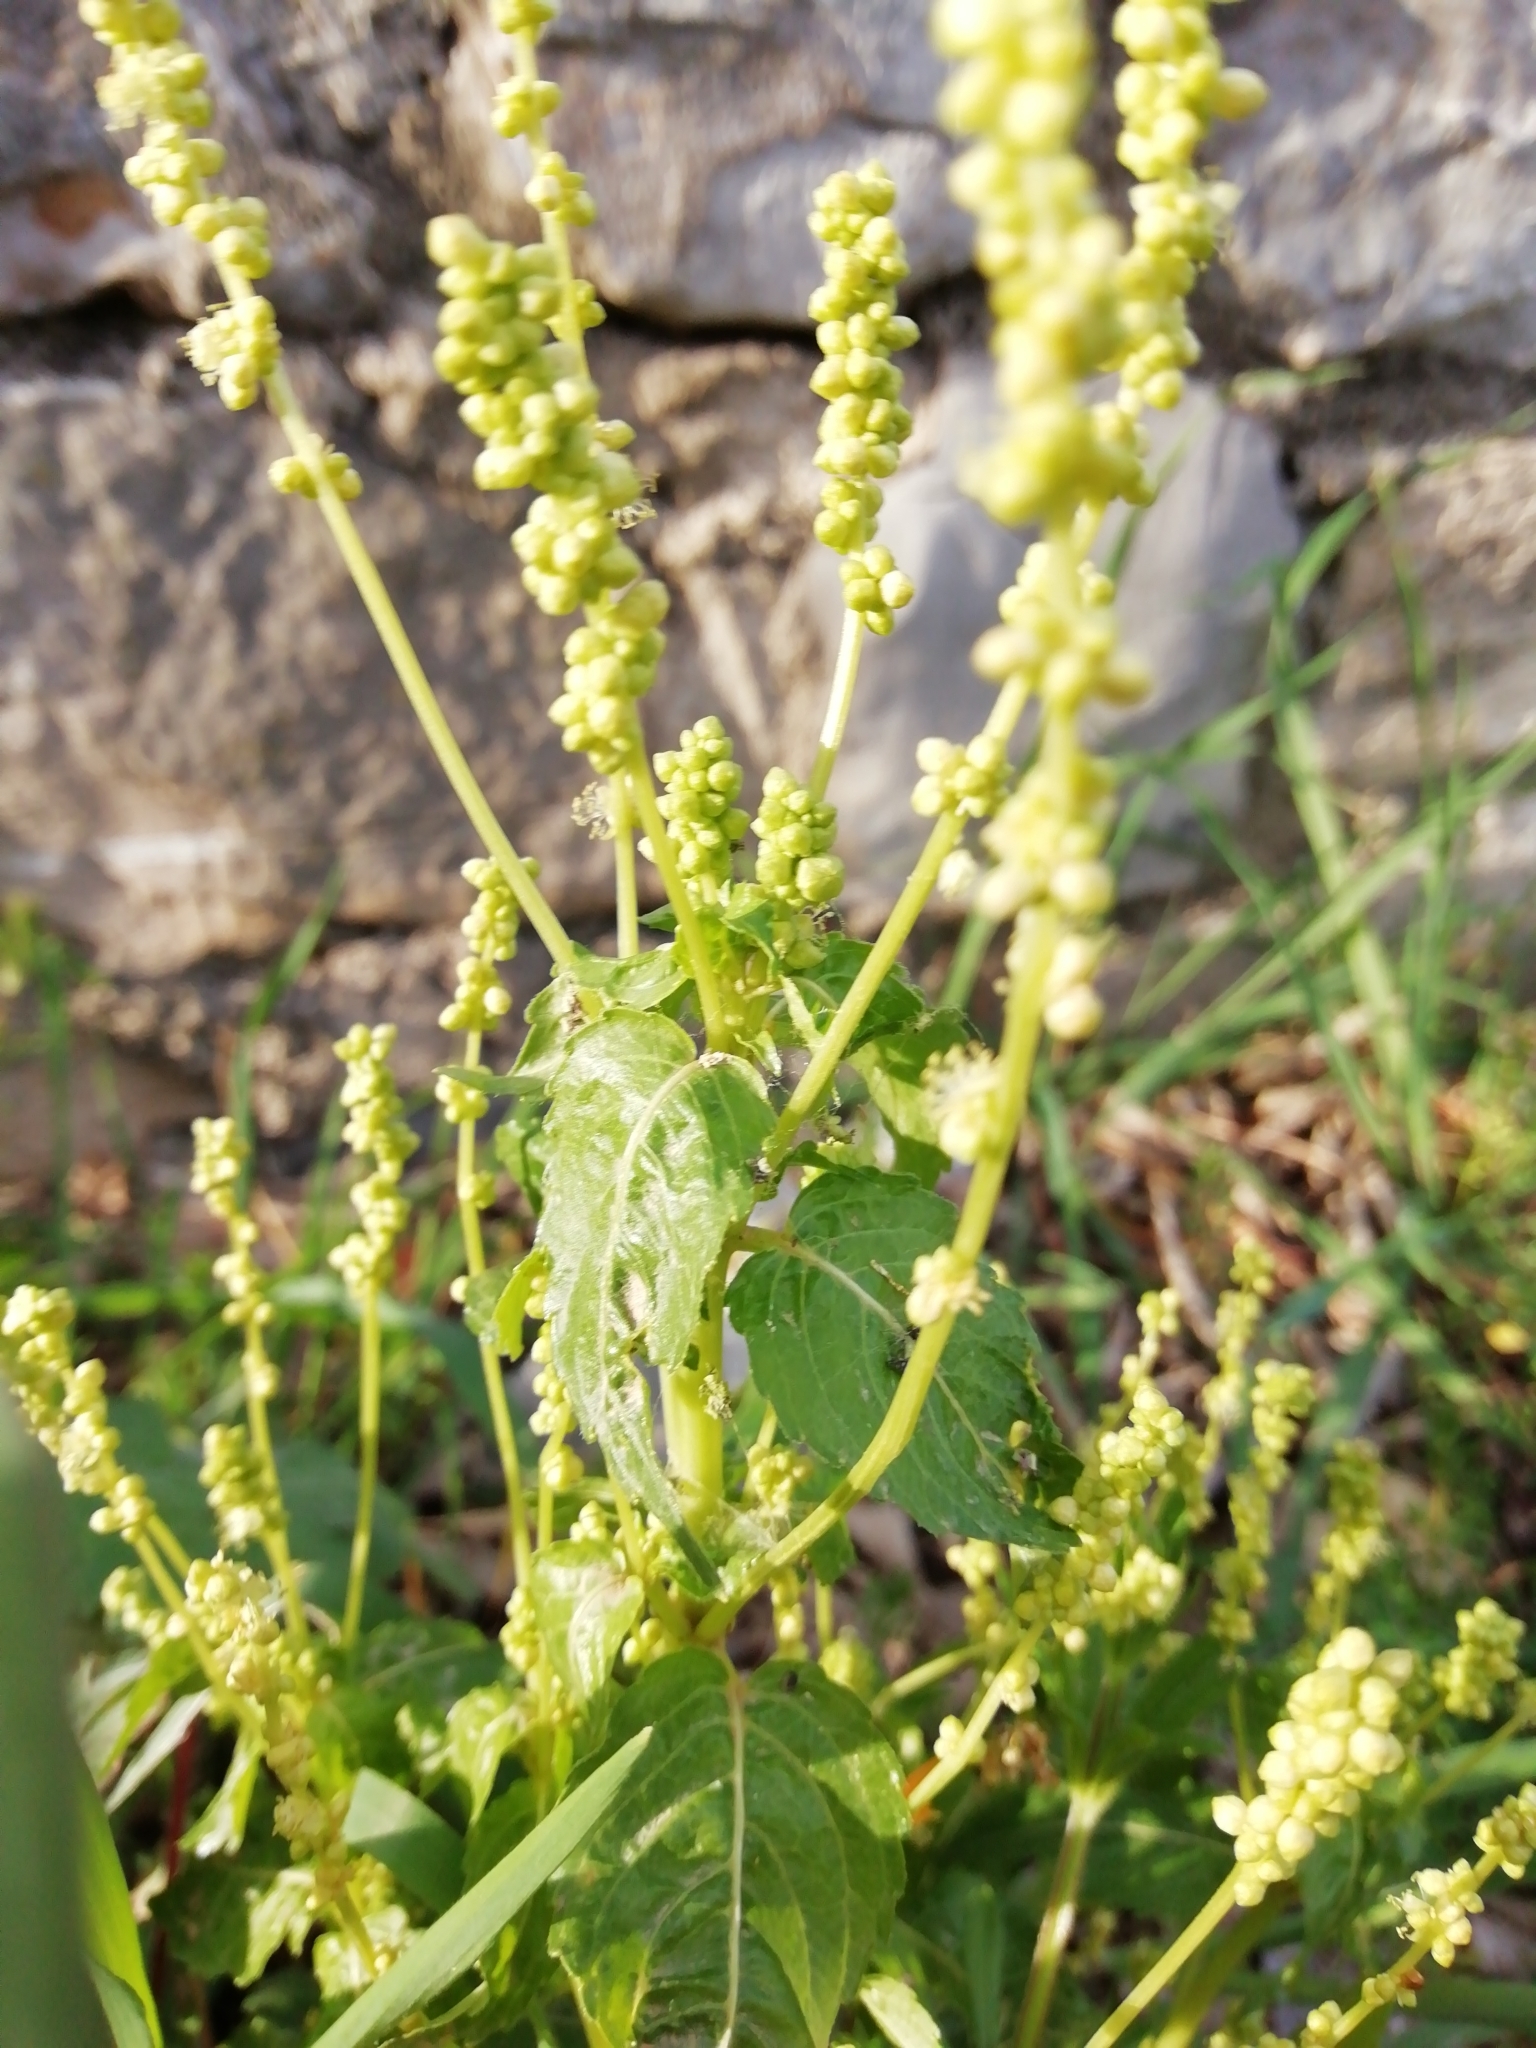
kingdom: Plantae
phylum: Tracheophyta
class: Magnoliopsida
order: Malpighiales
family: Euphorbiaceae
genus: Mercurialis
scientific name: Mercurialis annua
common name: Annual mercury
